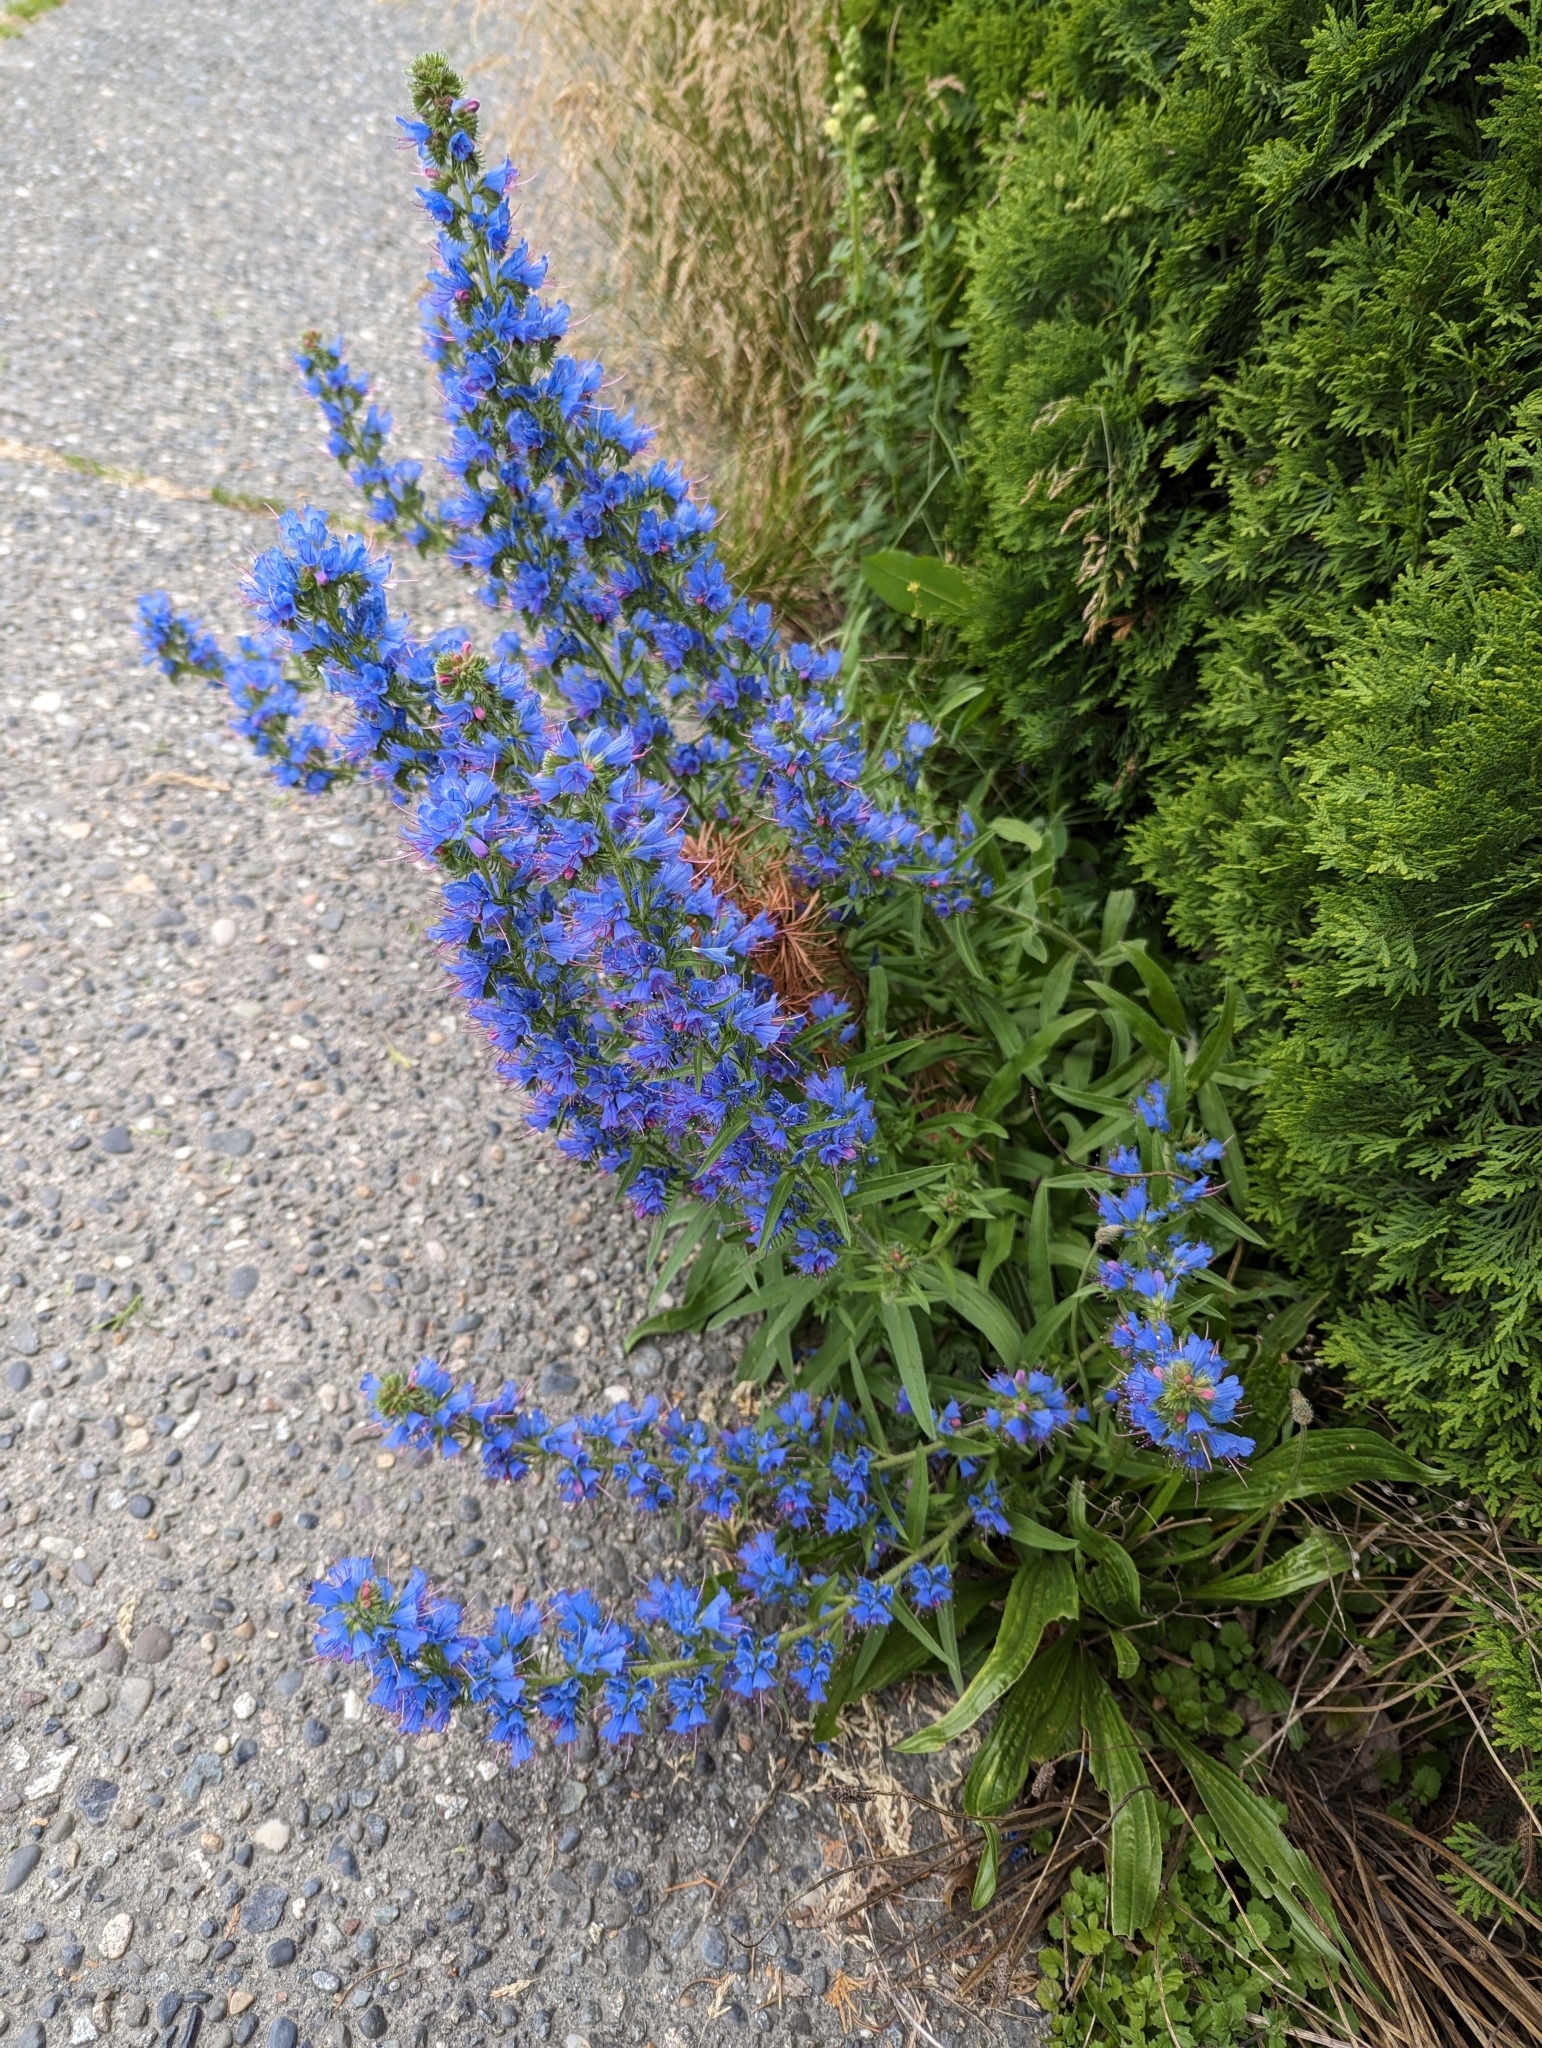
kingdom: Plantae
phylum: Tracheophyta
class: Magnoliopsida
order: Boraginales
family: Boraginaceae
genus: Echium
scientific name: Echium vulgare
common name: Common viper's bugloss
